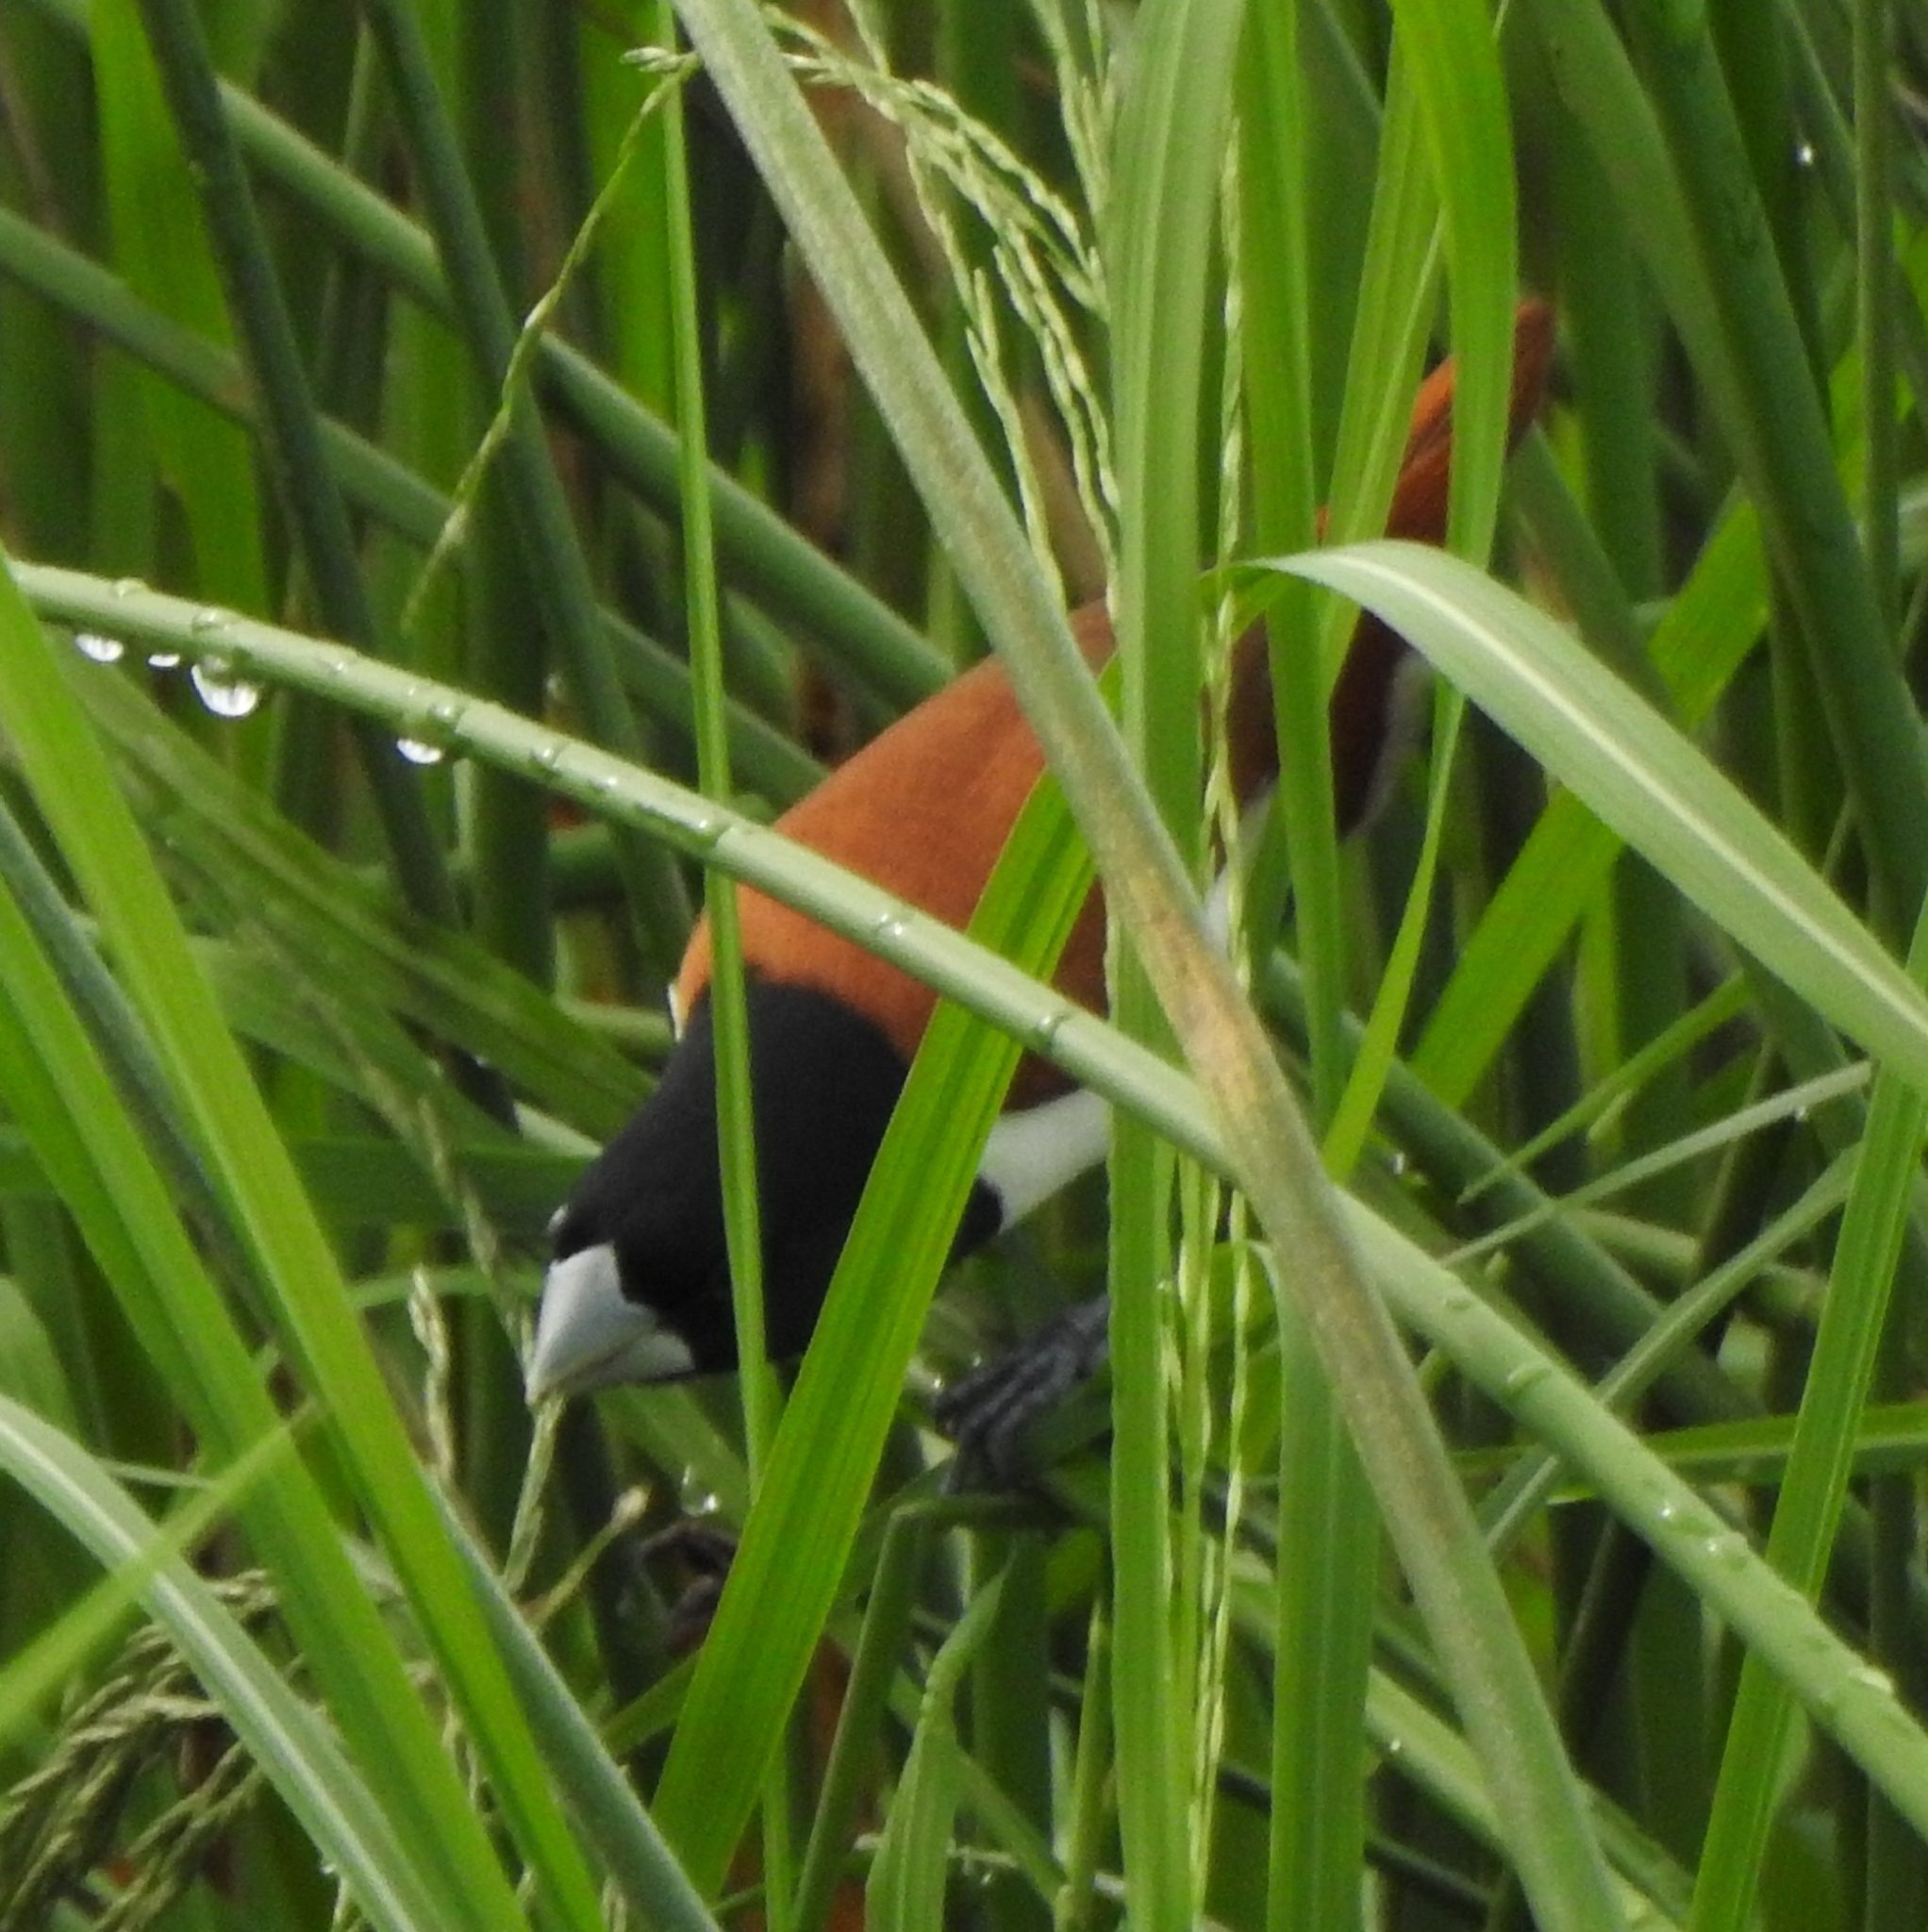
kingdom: Animalia
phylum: Chordata
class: Aves
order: Passeriformes
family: Estrildidae
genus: Lonchura
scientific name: Lonchura malacca
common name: Tricolored munia
